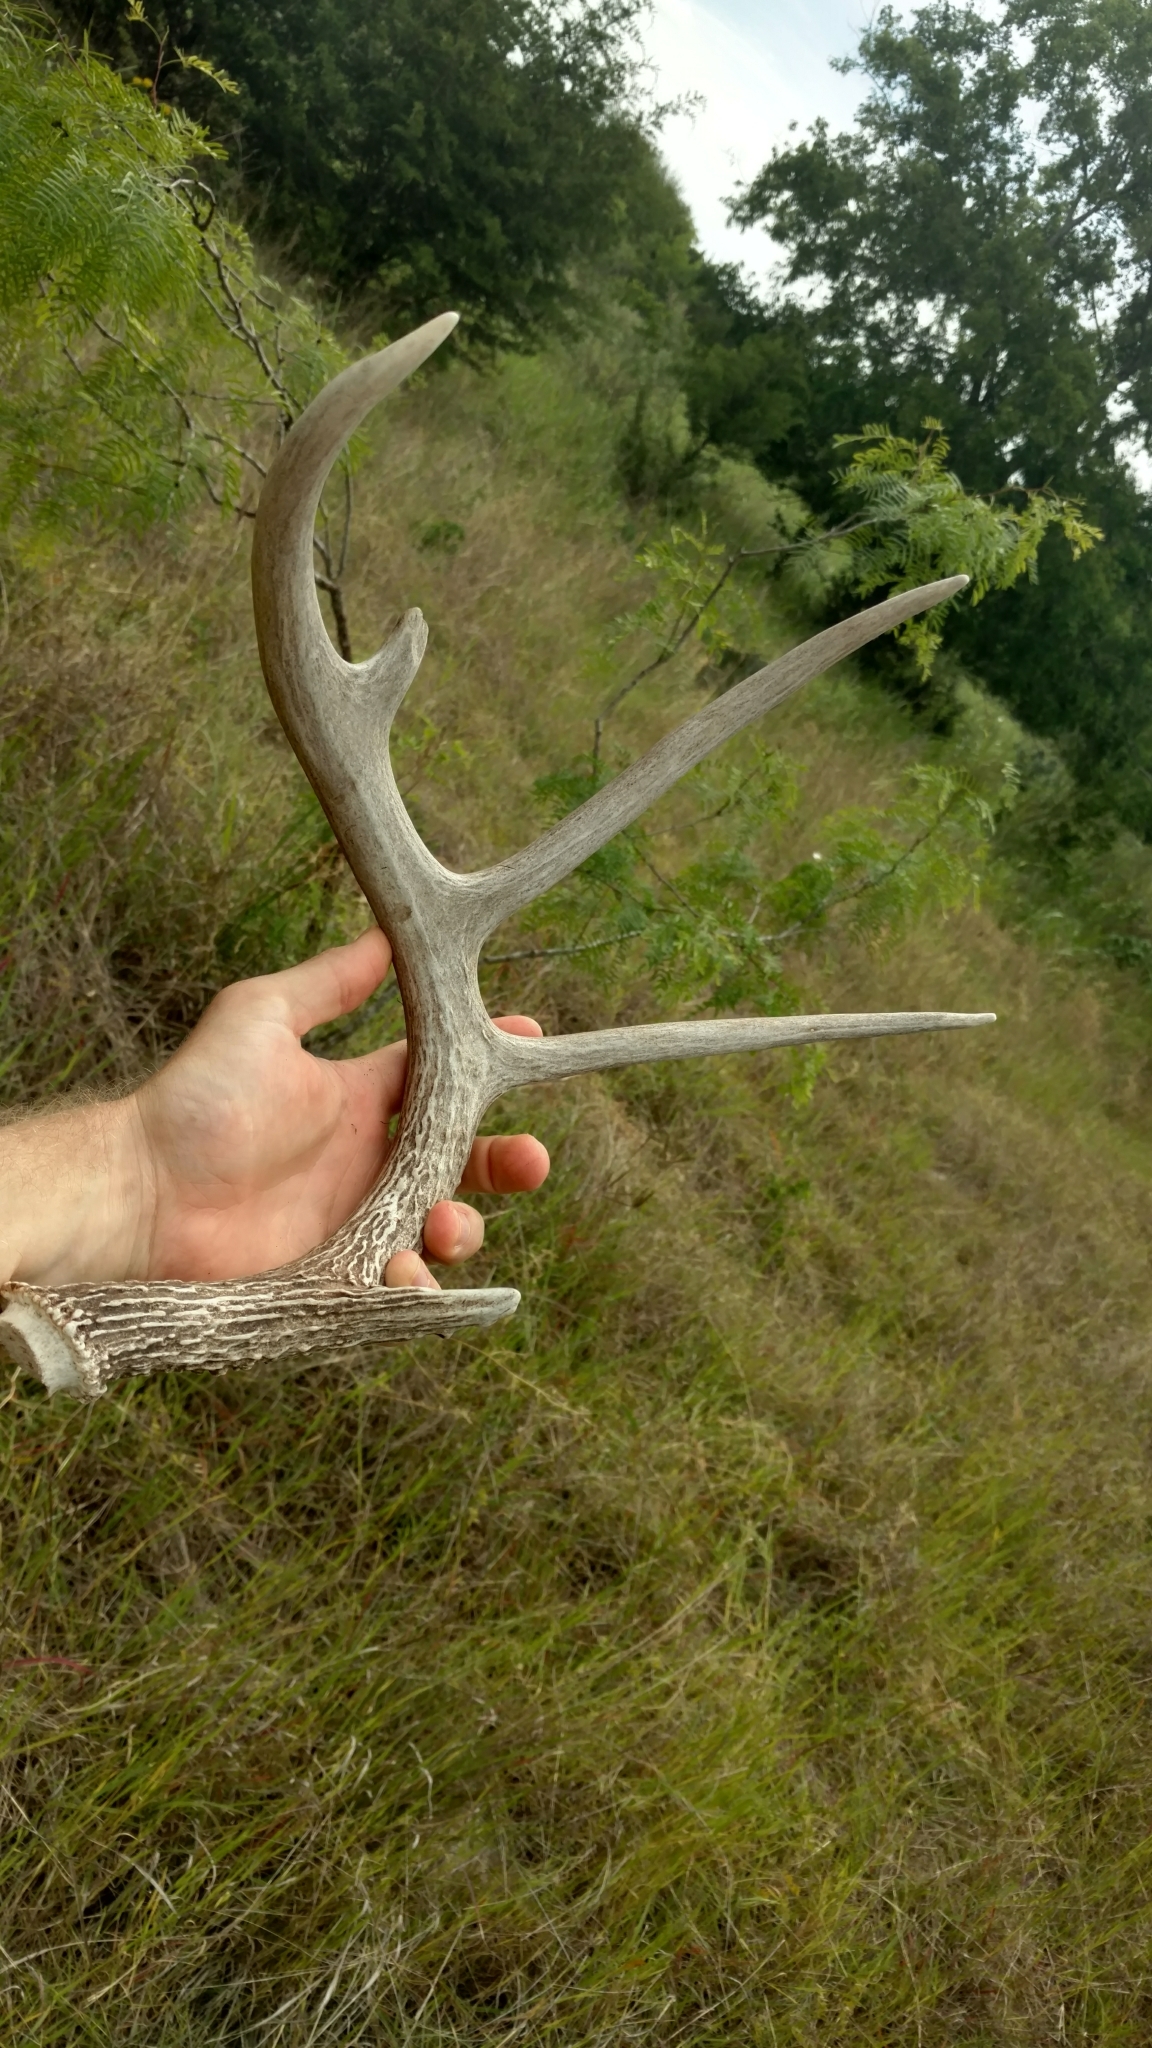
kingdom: Animalia
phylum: Chordata
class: Mammalia
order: Artiodactyla
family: Cervidae
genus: Odocoileus
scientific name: Odocoileus virginianus
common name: White-tailed deer
